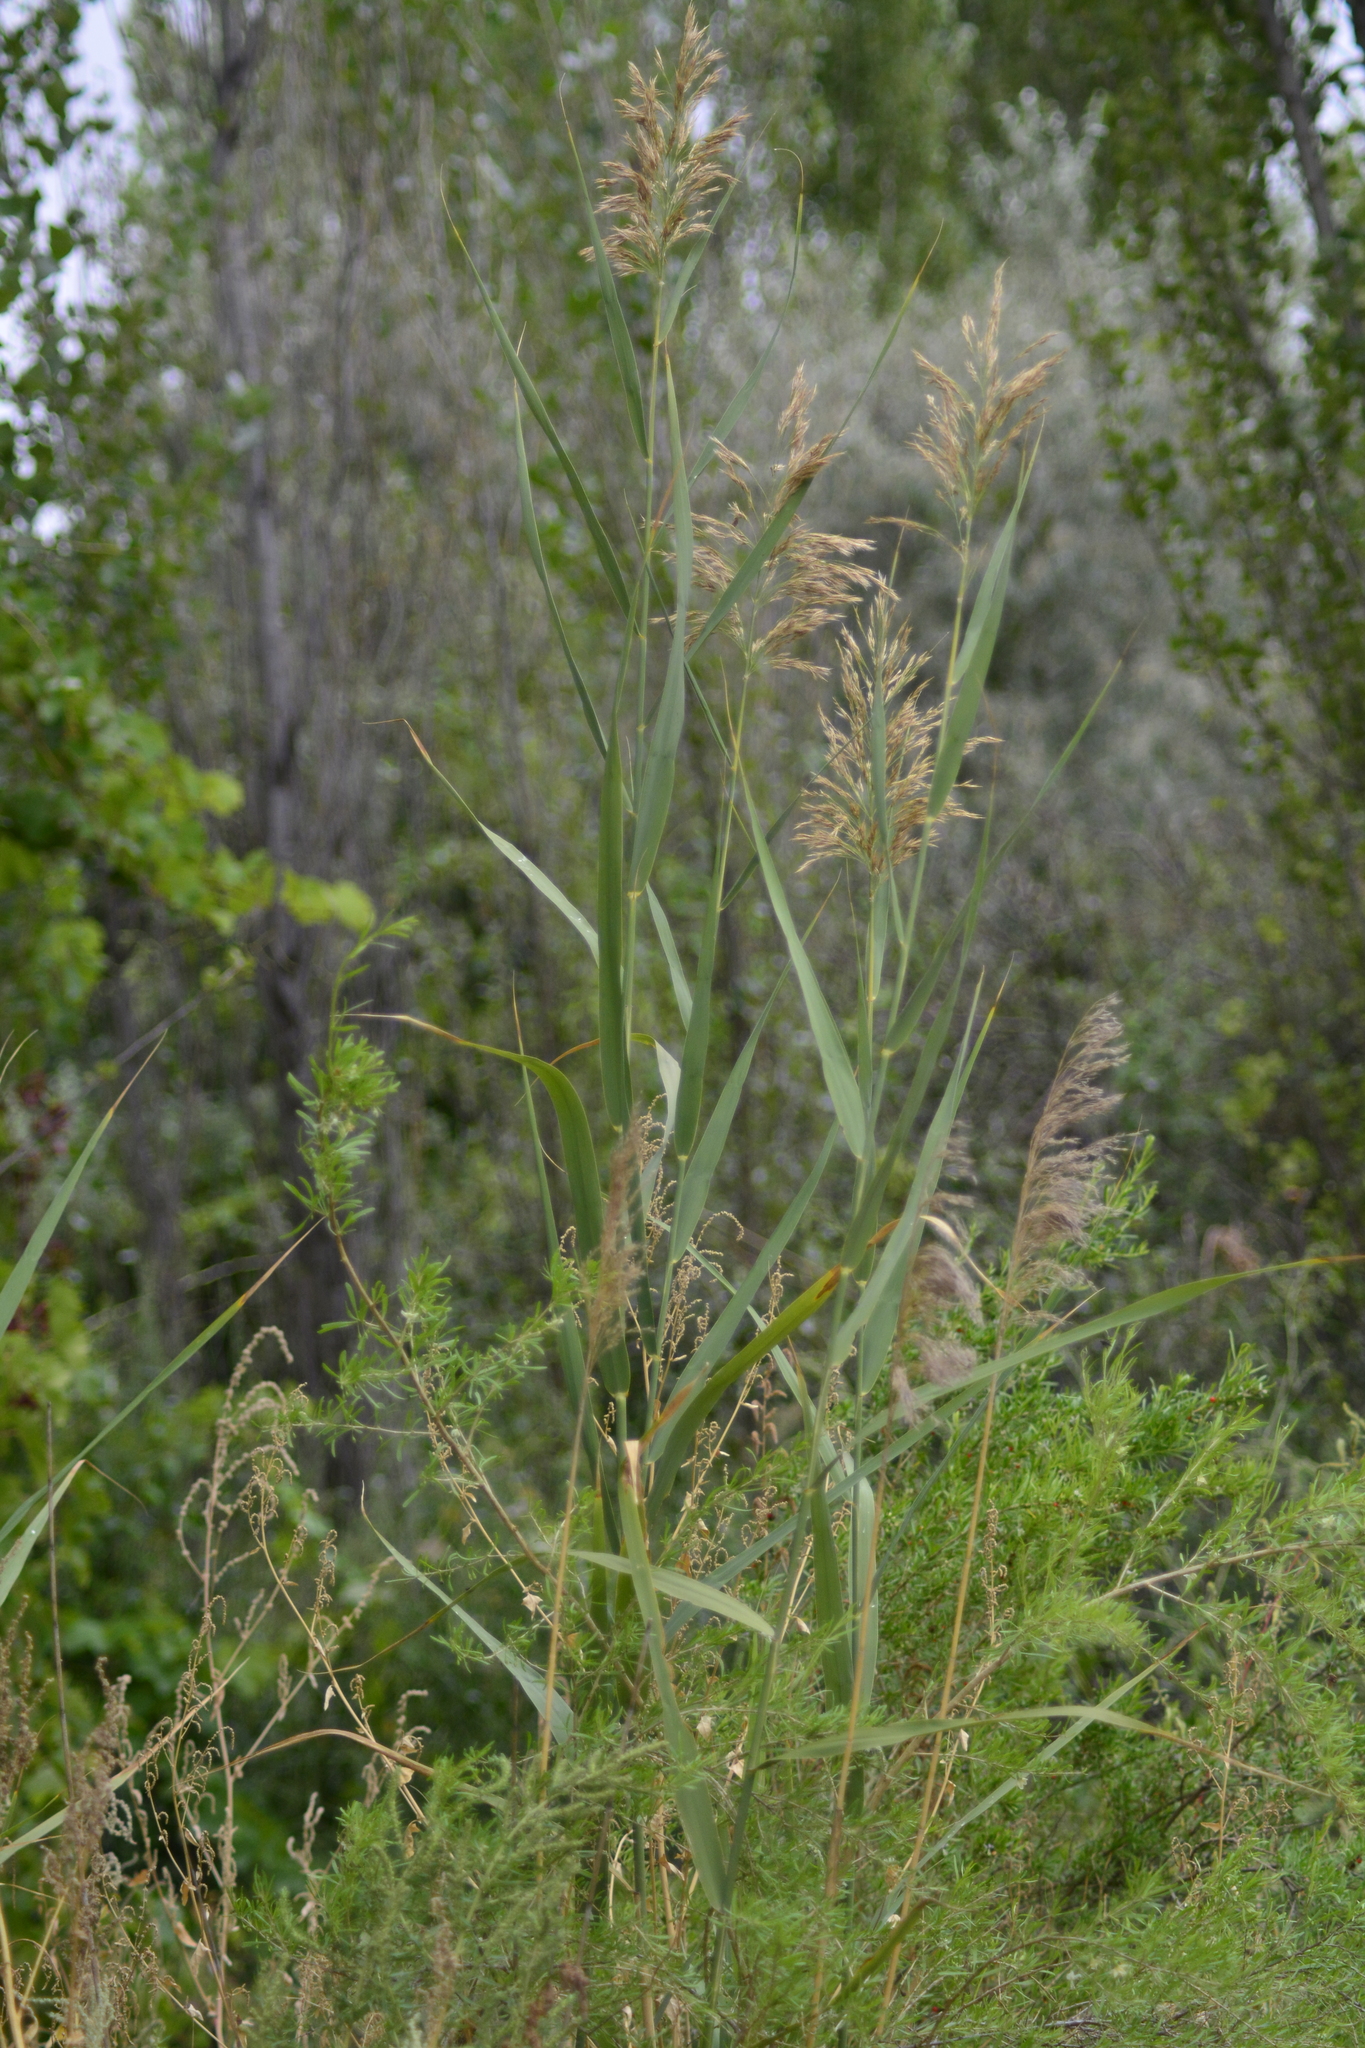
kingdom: Plantae
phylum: Tracheophyta
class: Liliopsida
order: Poales
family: Poaceae
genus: Phragmites
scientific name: Phragmites australis
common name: Common reed
